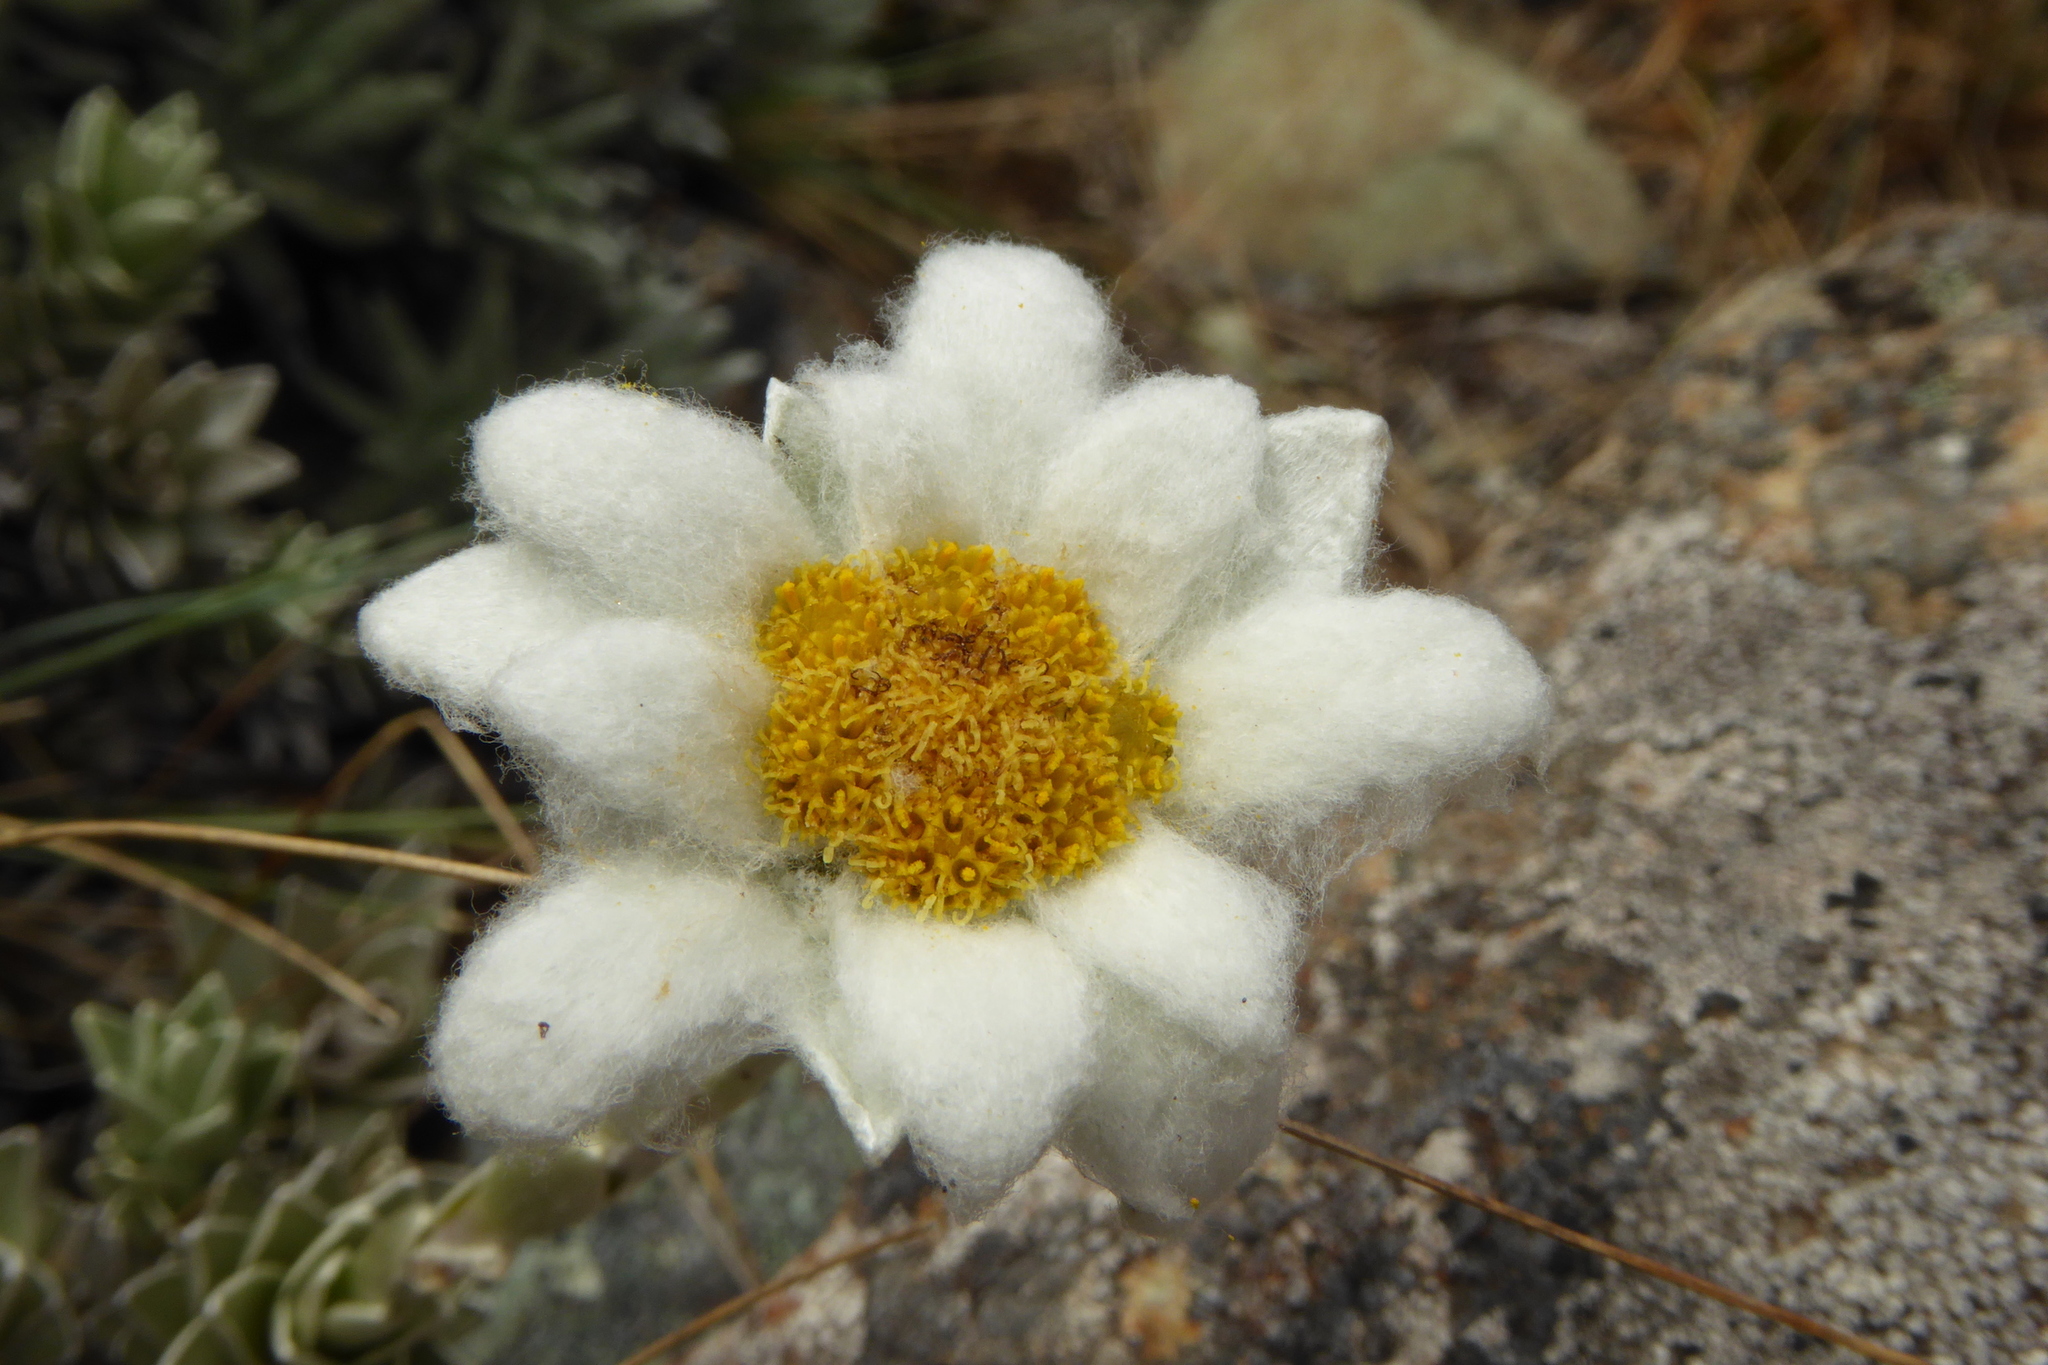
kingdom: Plantae
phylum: Tracheophyta
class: Magnoliopsida
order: Asterales
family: Asteraceae
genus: Leucogenes
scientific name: Leucogenes leontopodium
